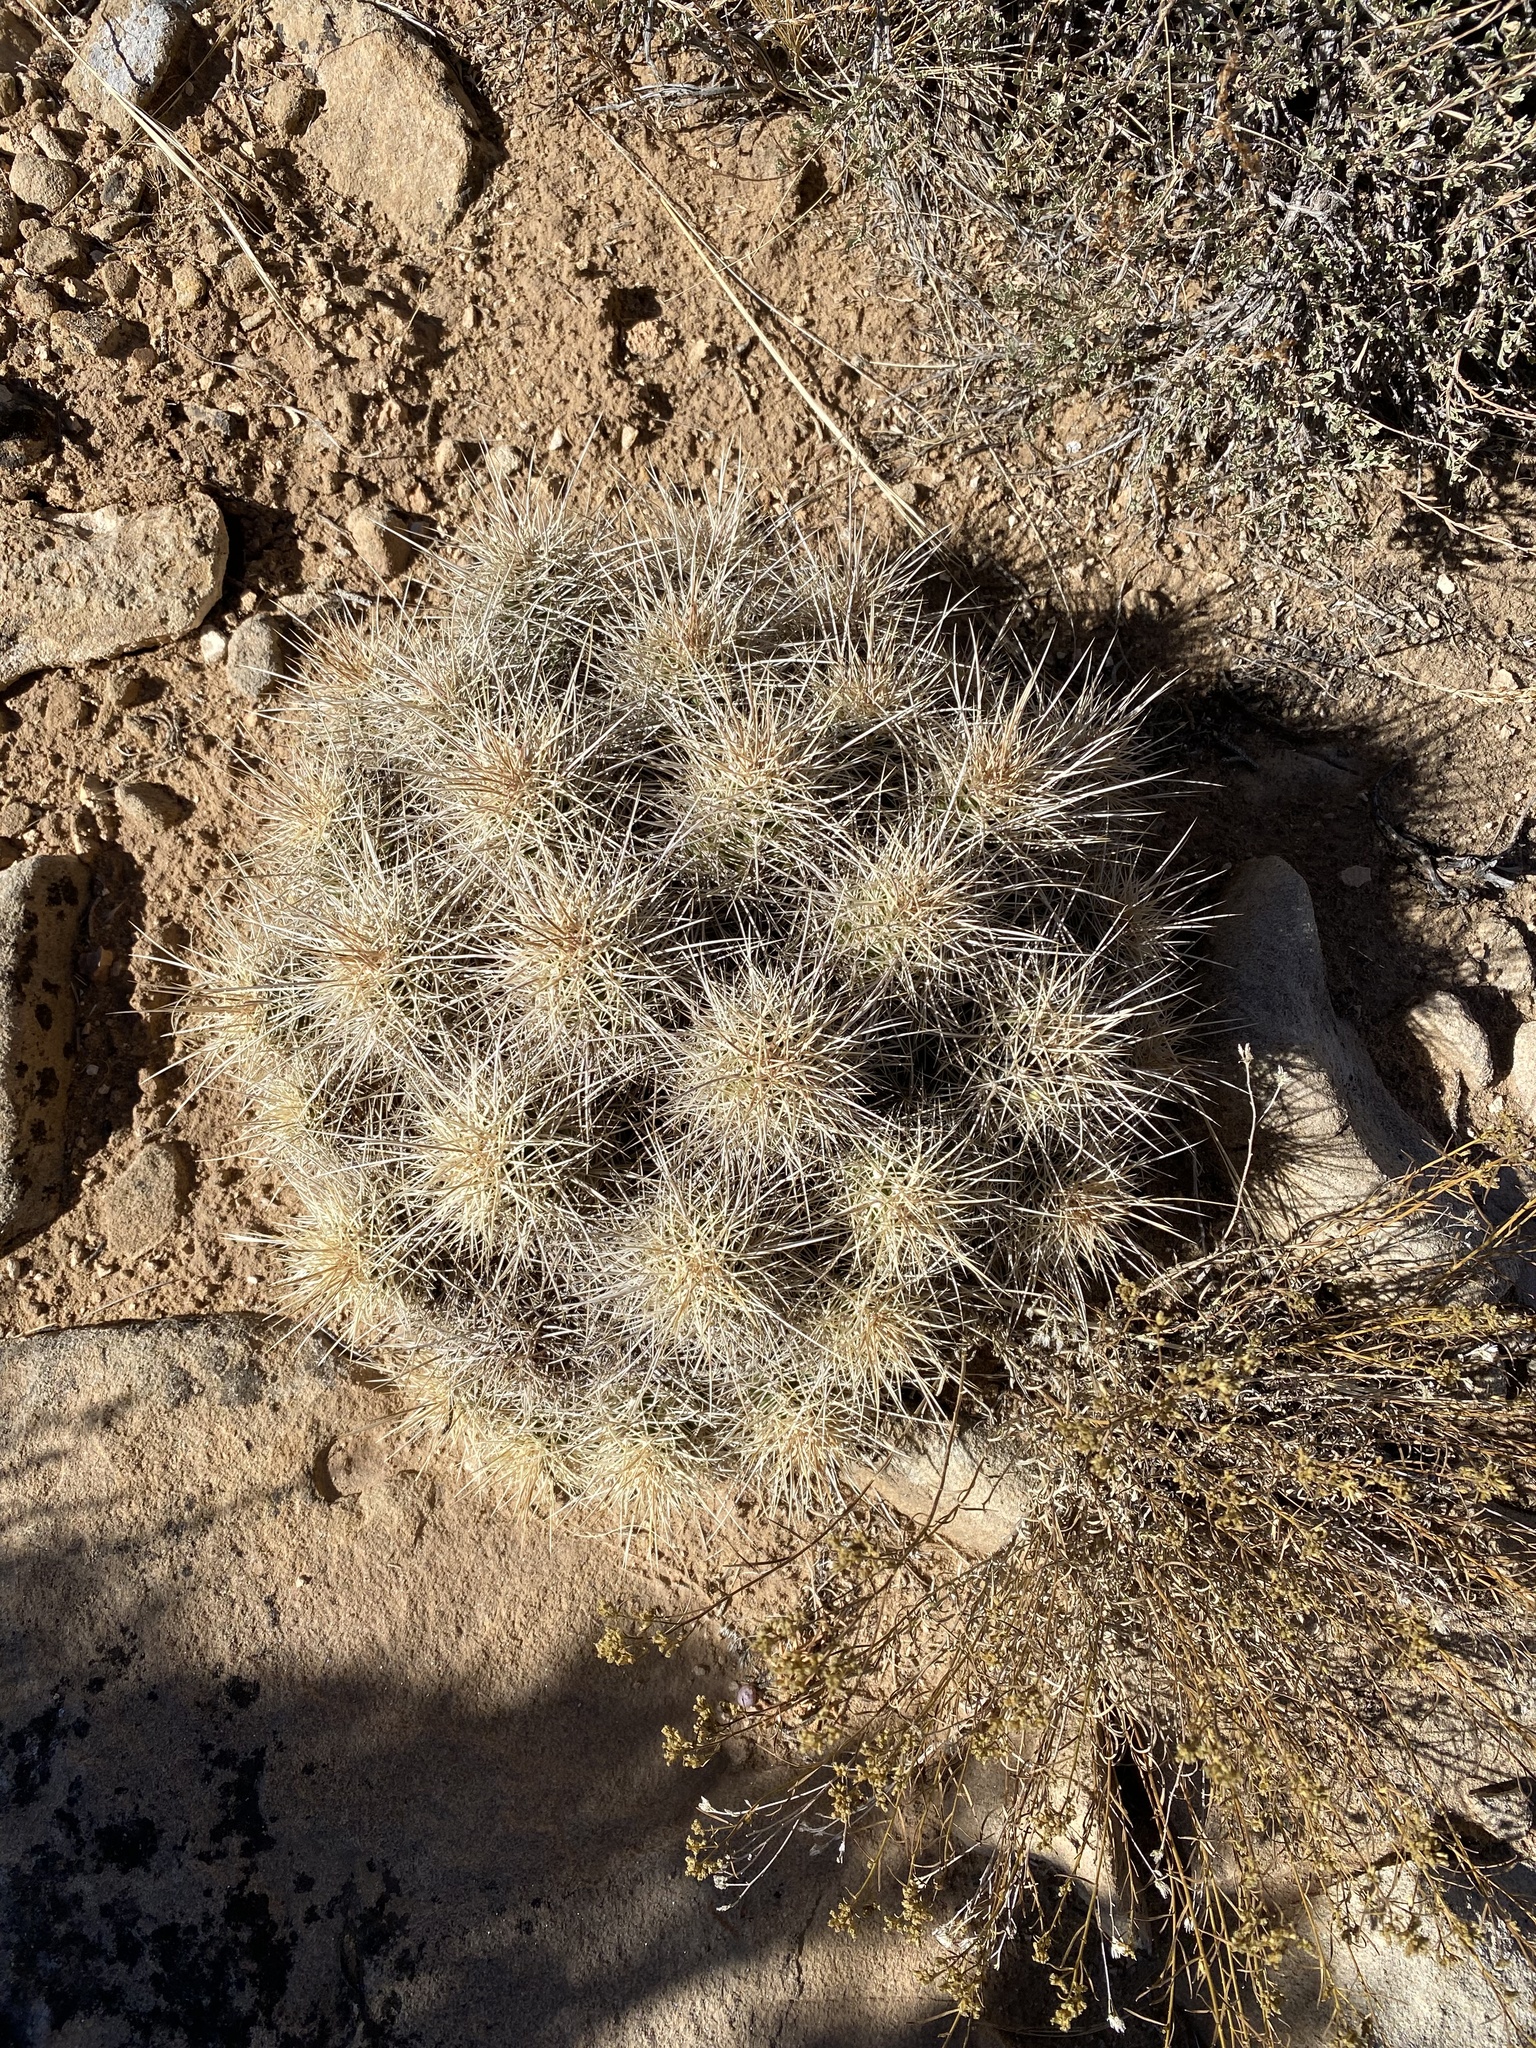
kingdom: Plantae
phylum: Tracheophyta
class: Magnoliopsida
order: Caryophyllales
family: Cactaceae
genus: Echinocereus
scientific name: Echinocereus triglochidiatus
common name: Claretcup hedgehog
